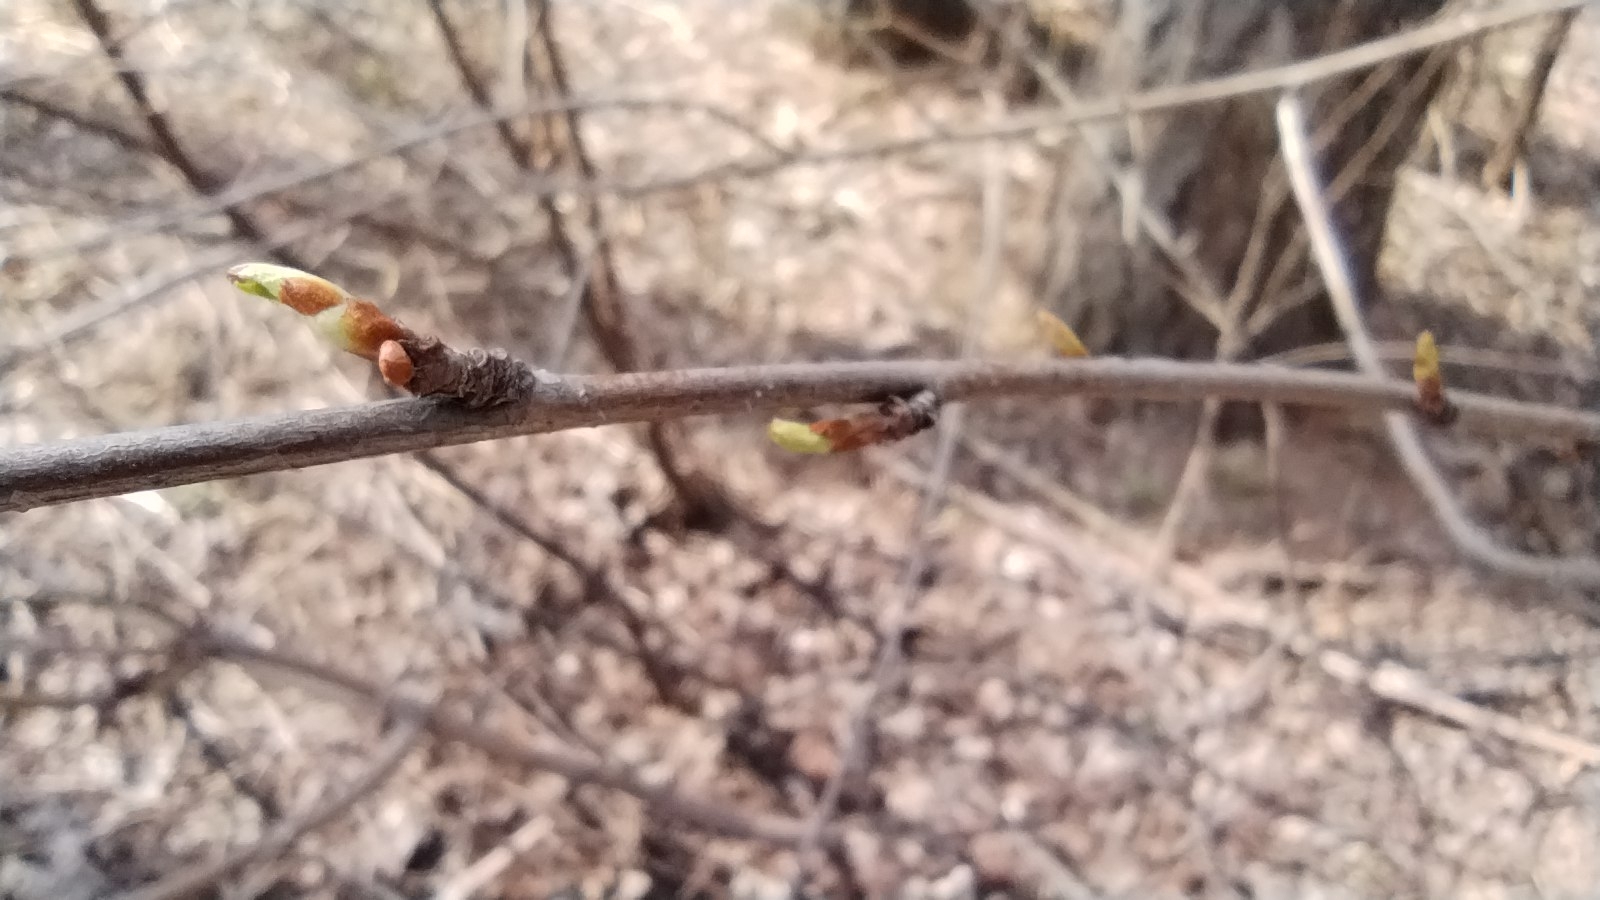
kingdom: Plantae
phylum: Tracheophyta
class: Magnoliopsida
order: Rosales
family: Rosaceae
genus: Prunus
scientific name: Prunus glandulifolia
